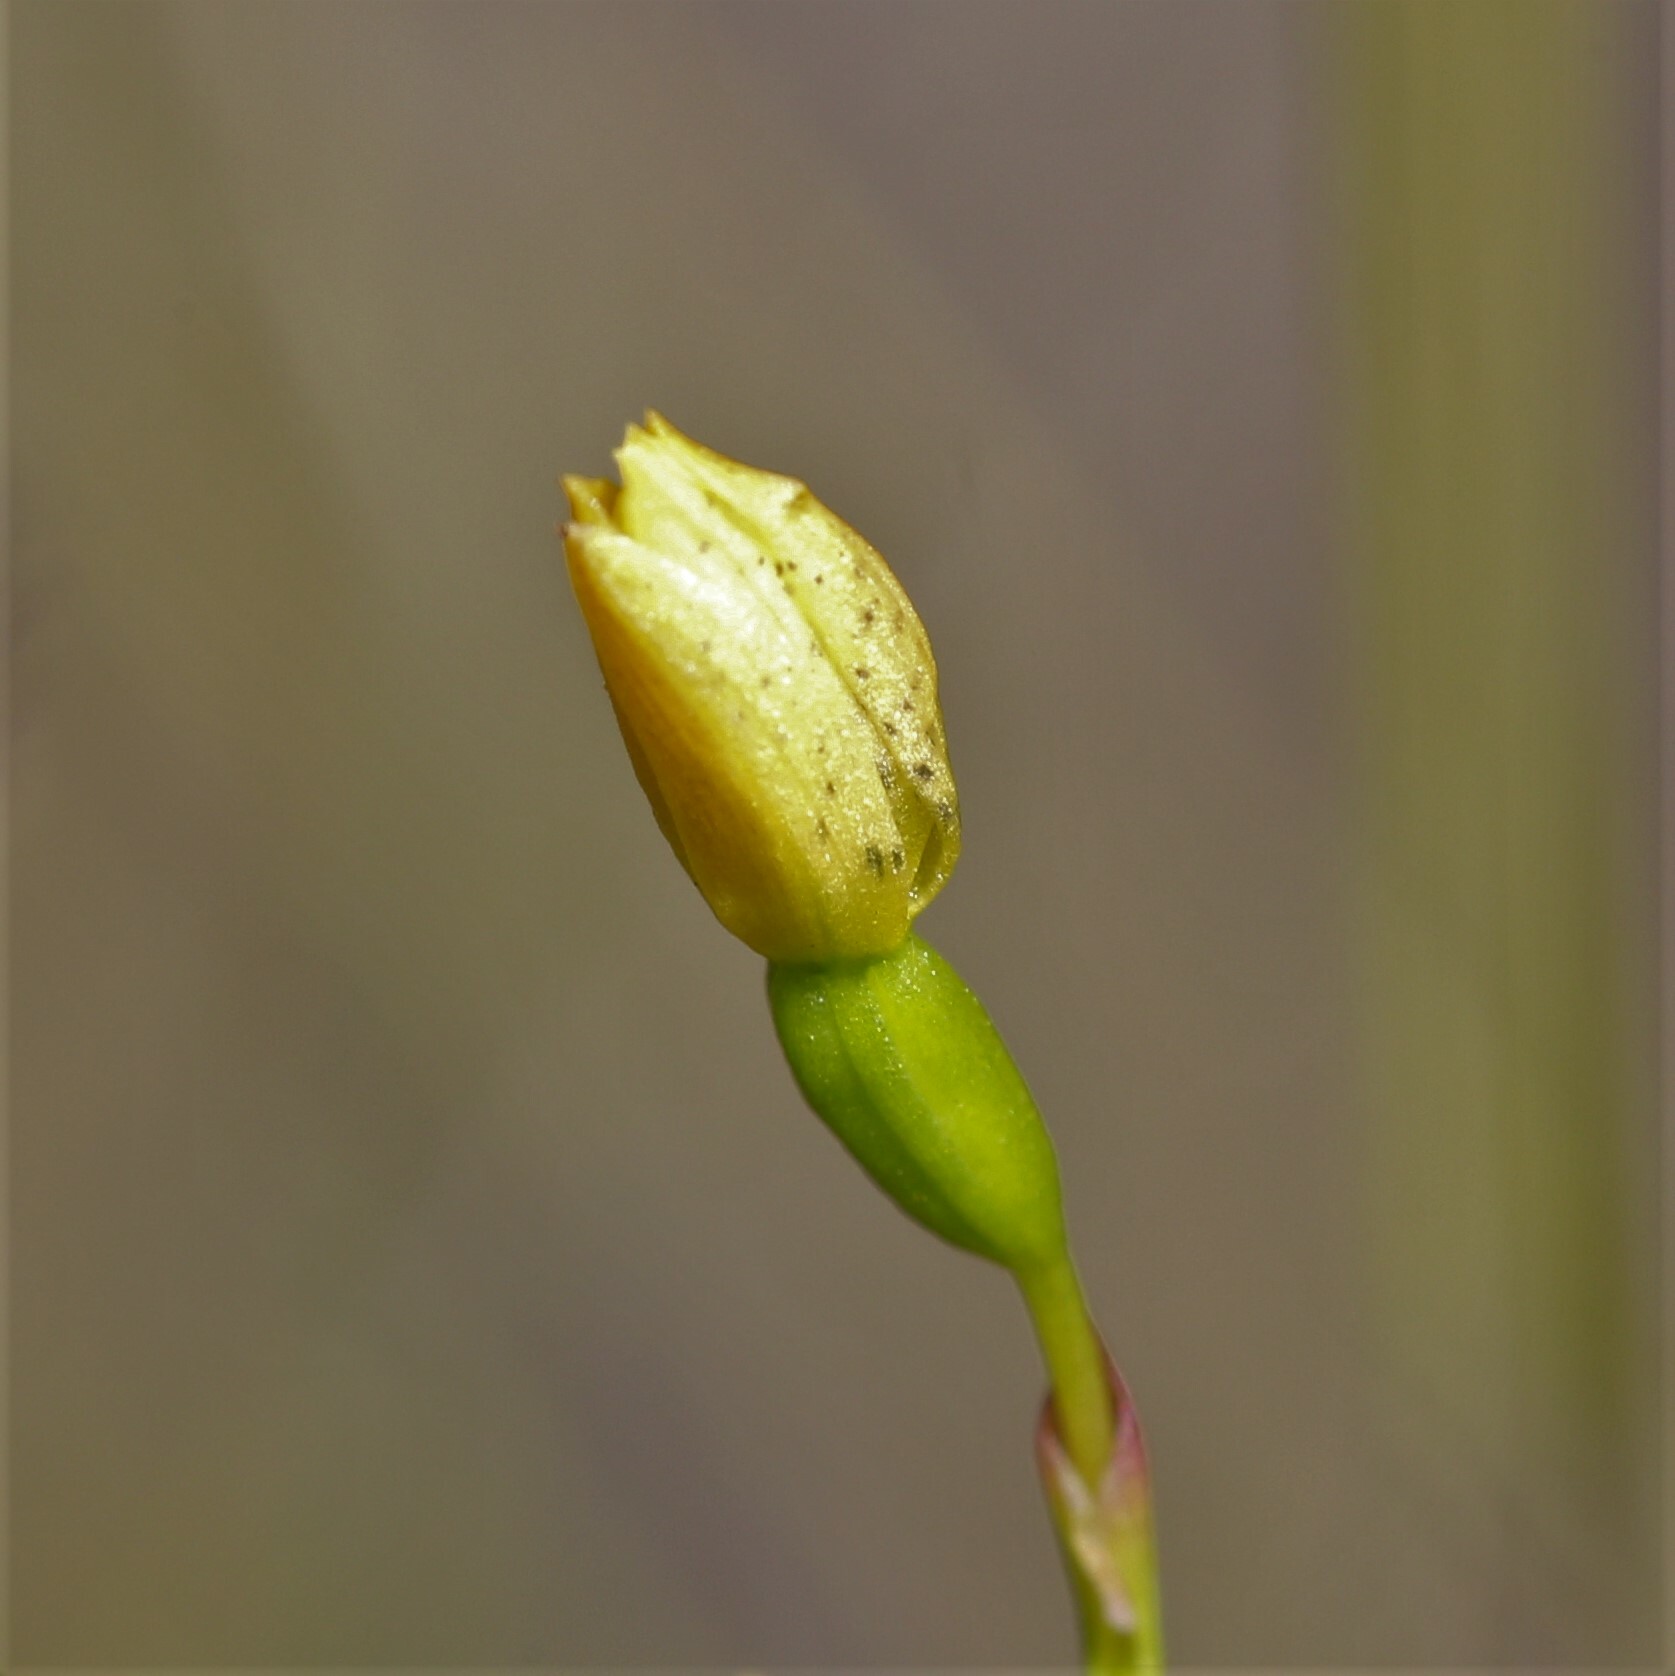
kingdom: Plantae
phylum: Tracheophyta
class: Liliopsida
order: Asparagales
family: Orchidaceae
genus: Thelymitra
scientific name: Thelymitra tigrina
